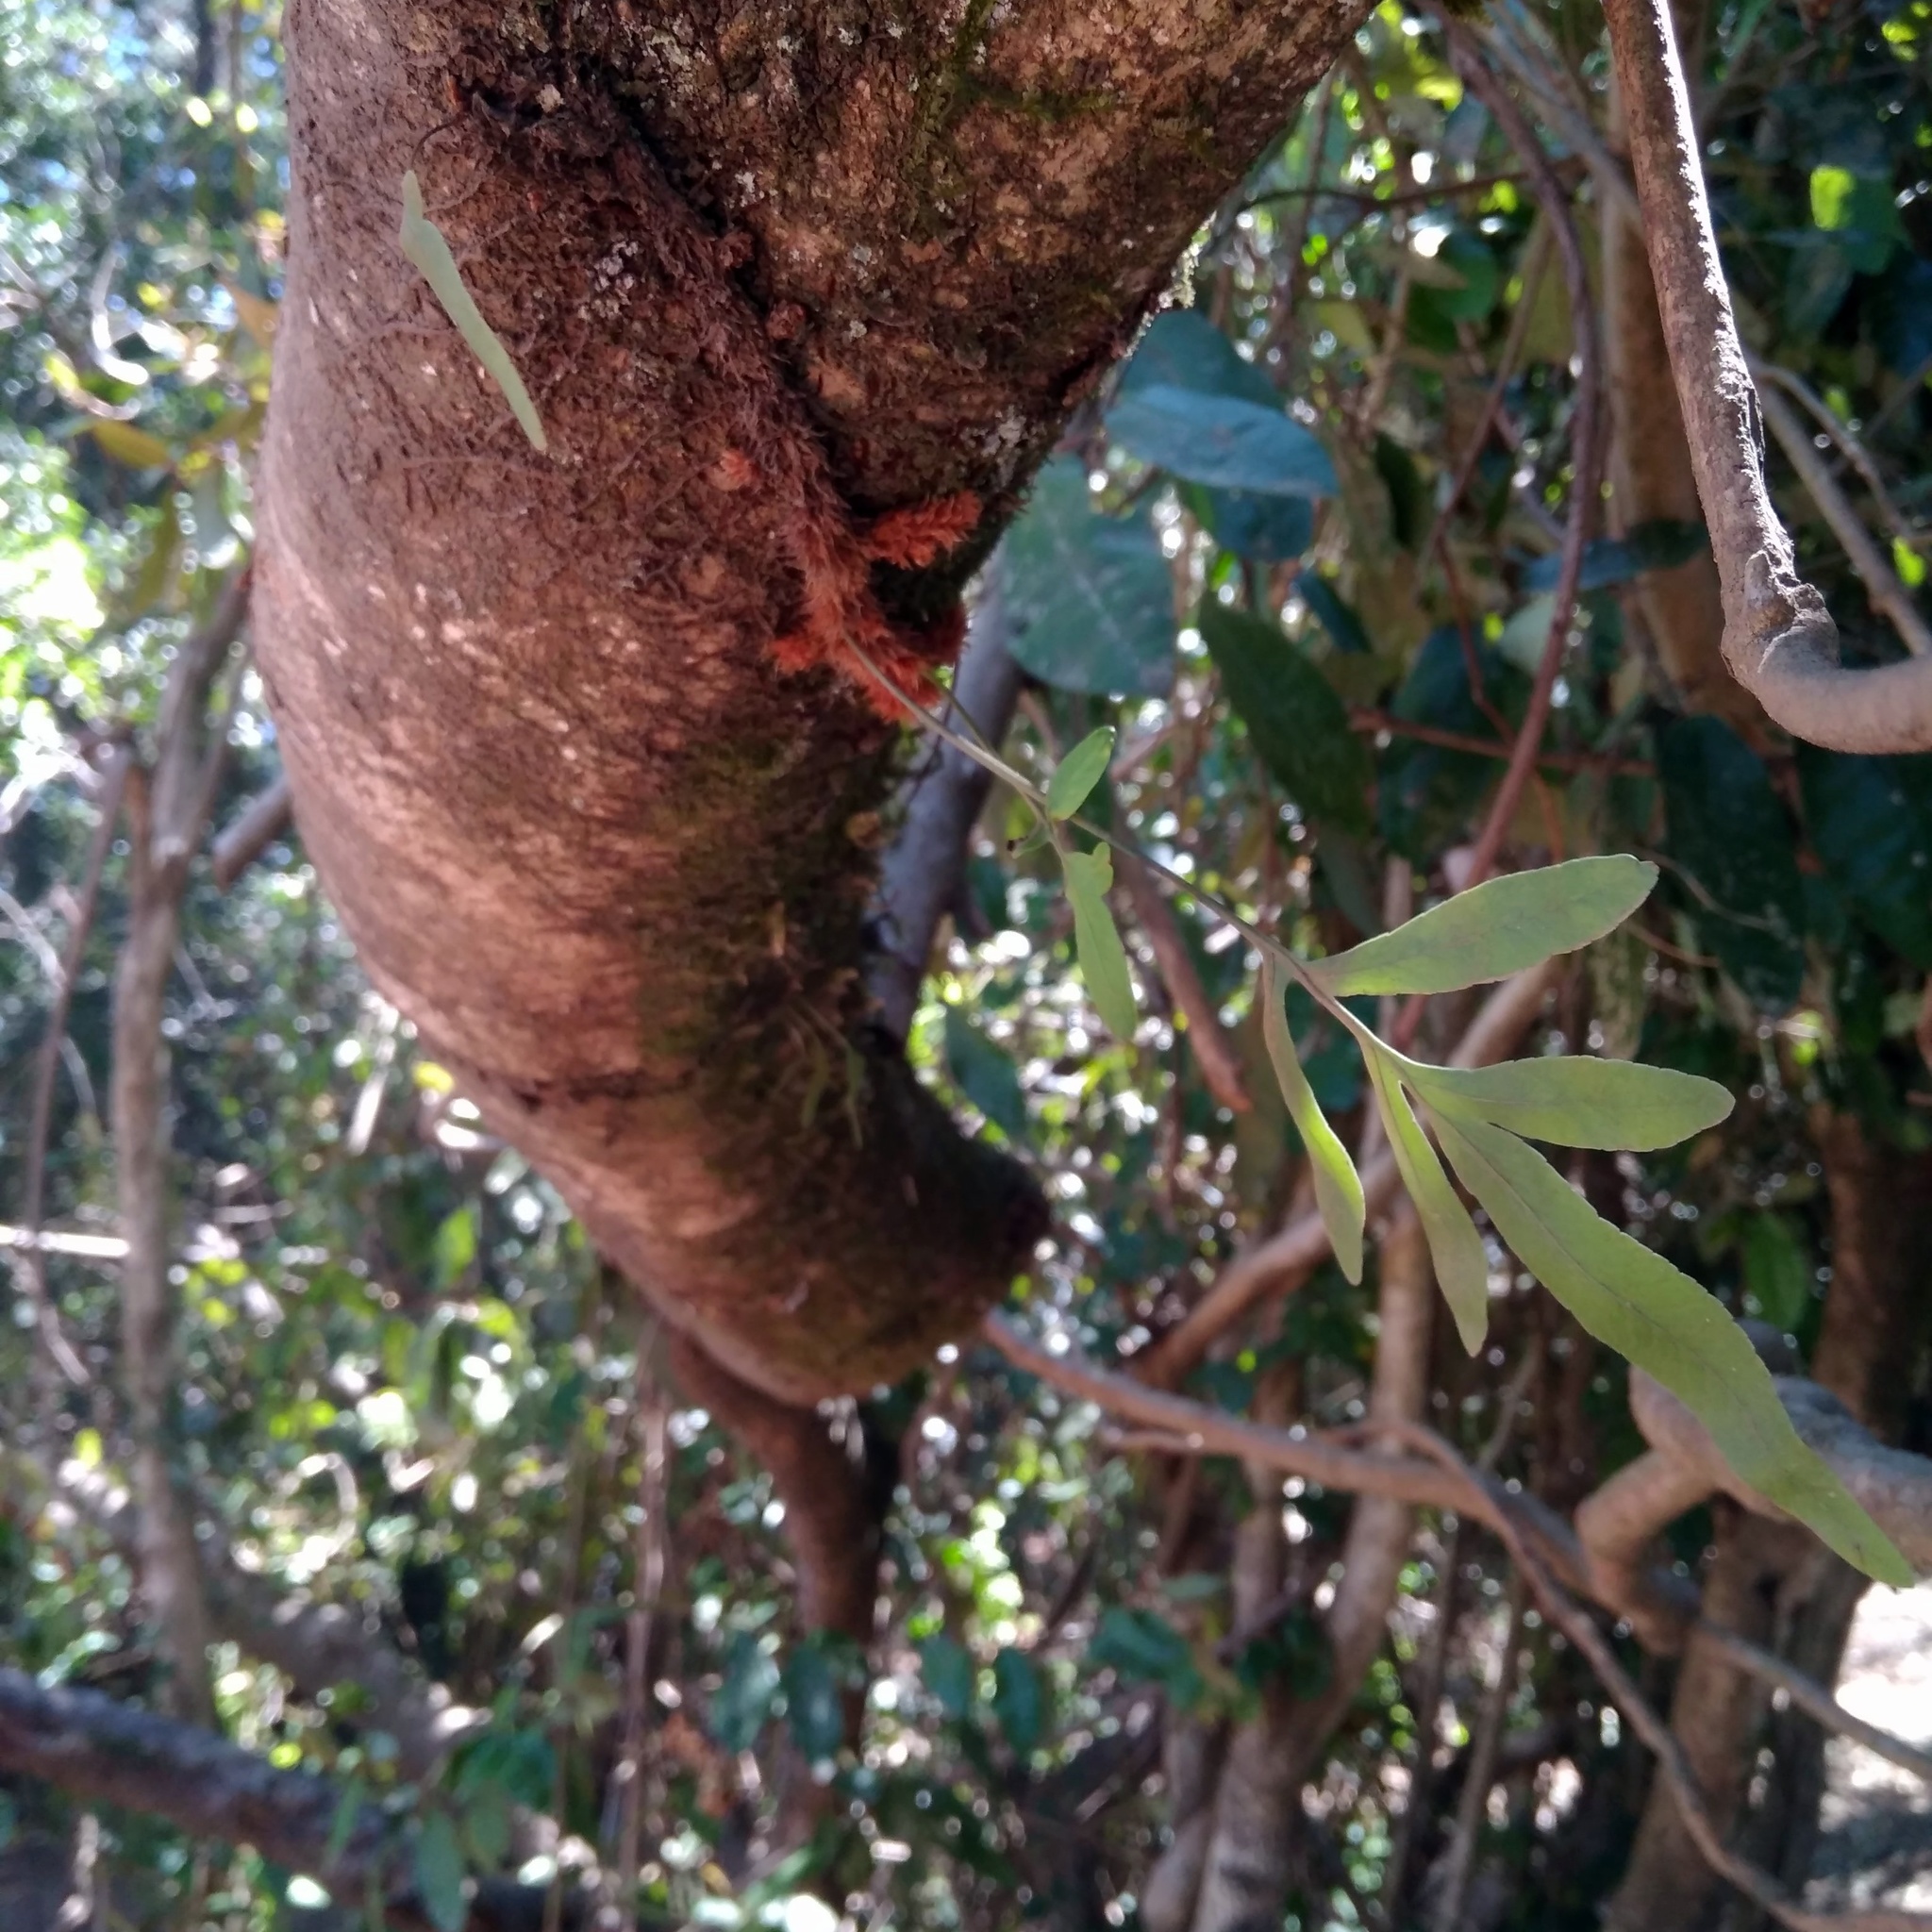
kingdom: Plantae
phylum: Tracheophyta
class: Polypodiopsida
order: Polypodiales
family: Polypodiaceae
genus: Synammia
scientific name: Synammia feuillei
